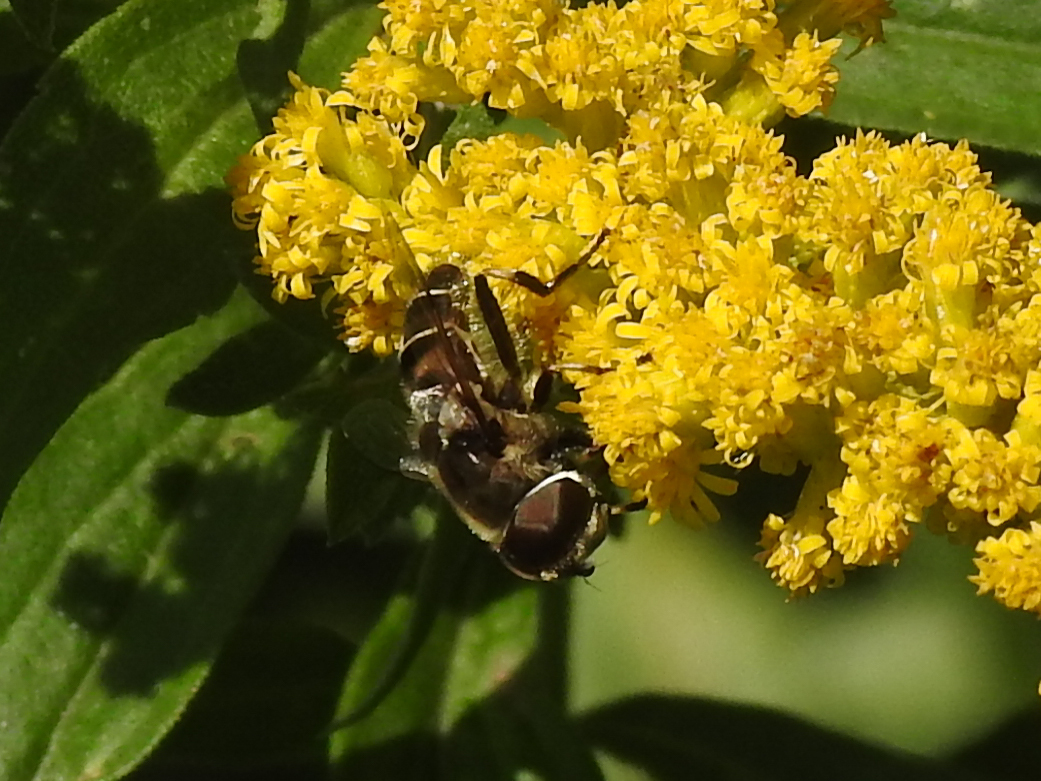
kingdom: Animalia
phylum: Arthropoda
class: Insecta
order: Diptera
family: Syrphidae
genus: Eristalis
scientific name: Eristalis dimidiata
